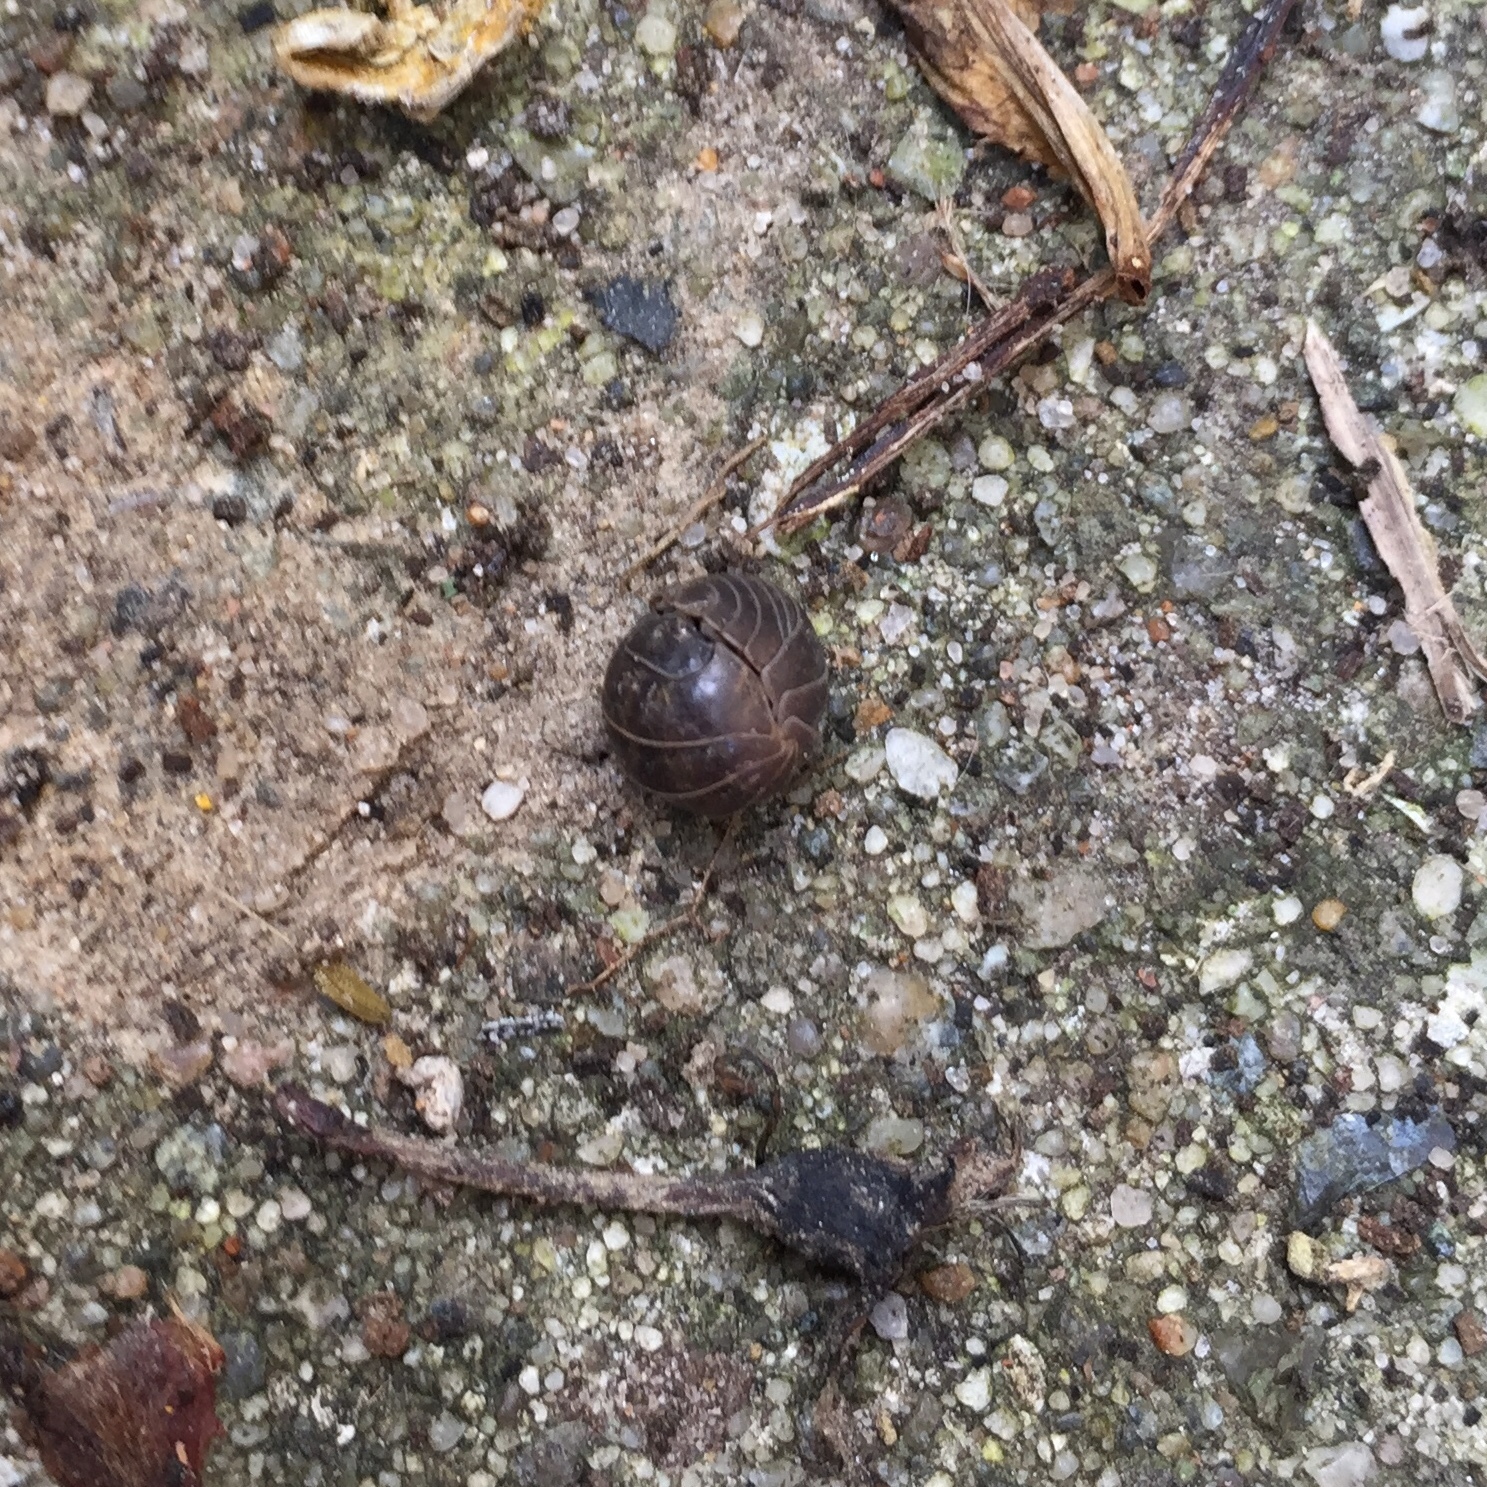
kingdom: Animalia
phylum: Arthropoda
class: Malacostraca
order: Isopoda
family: Armadillidiidae
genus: Armadillidium
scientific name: Armadillidium vulgare
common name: Common pill woodlouse
